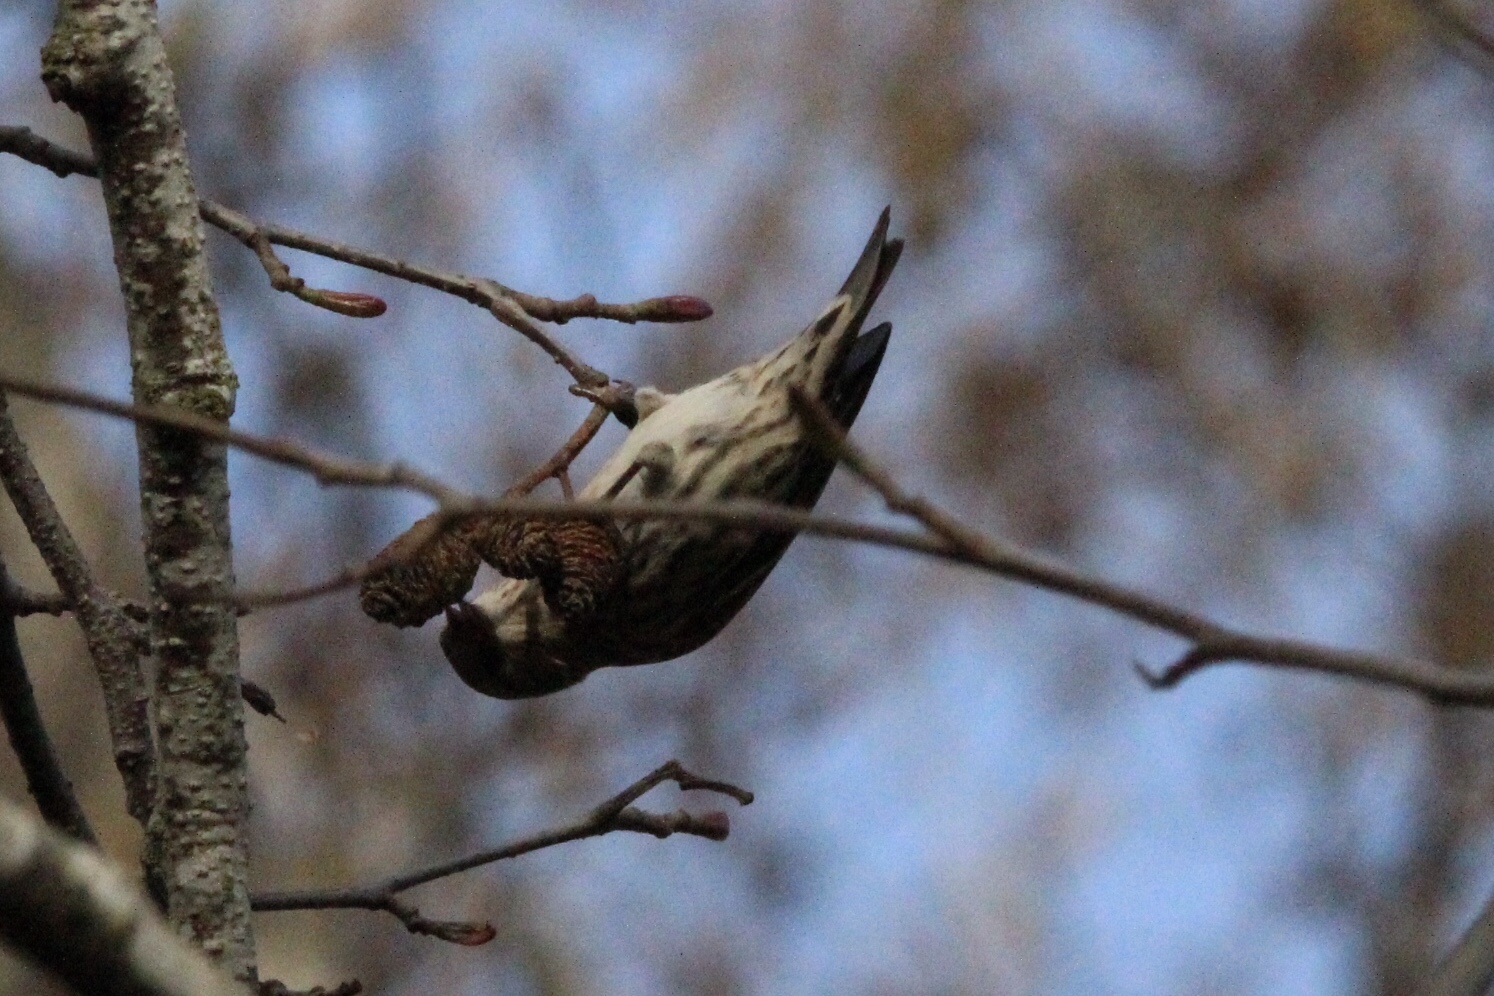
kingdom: Animalia
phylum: Chordata
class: Aves
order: Passeriformes
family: Fringillidae
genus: Spinus
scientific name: Spinus pinus
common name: Pine siskin
